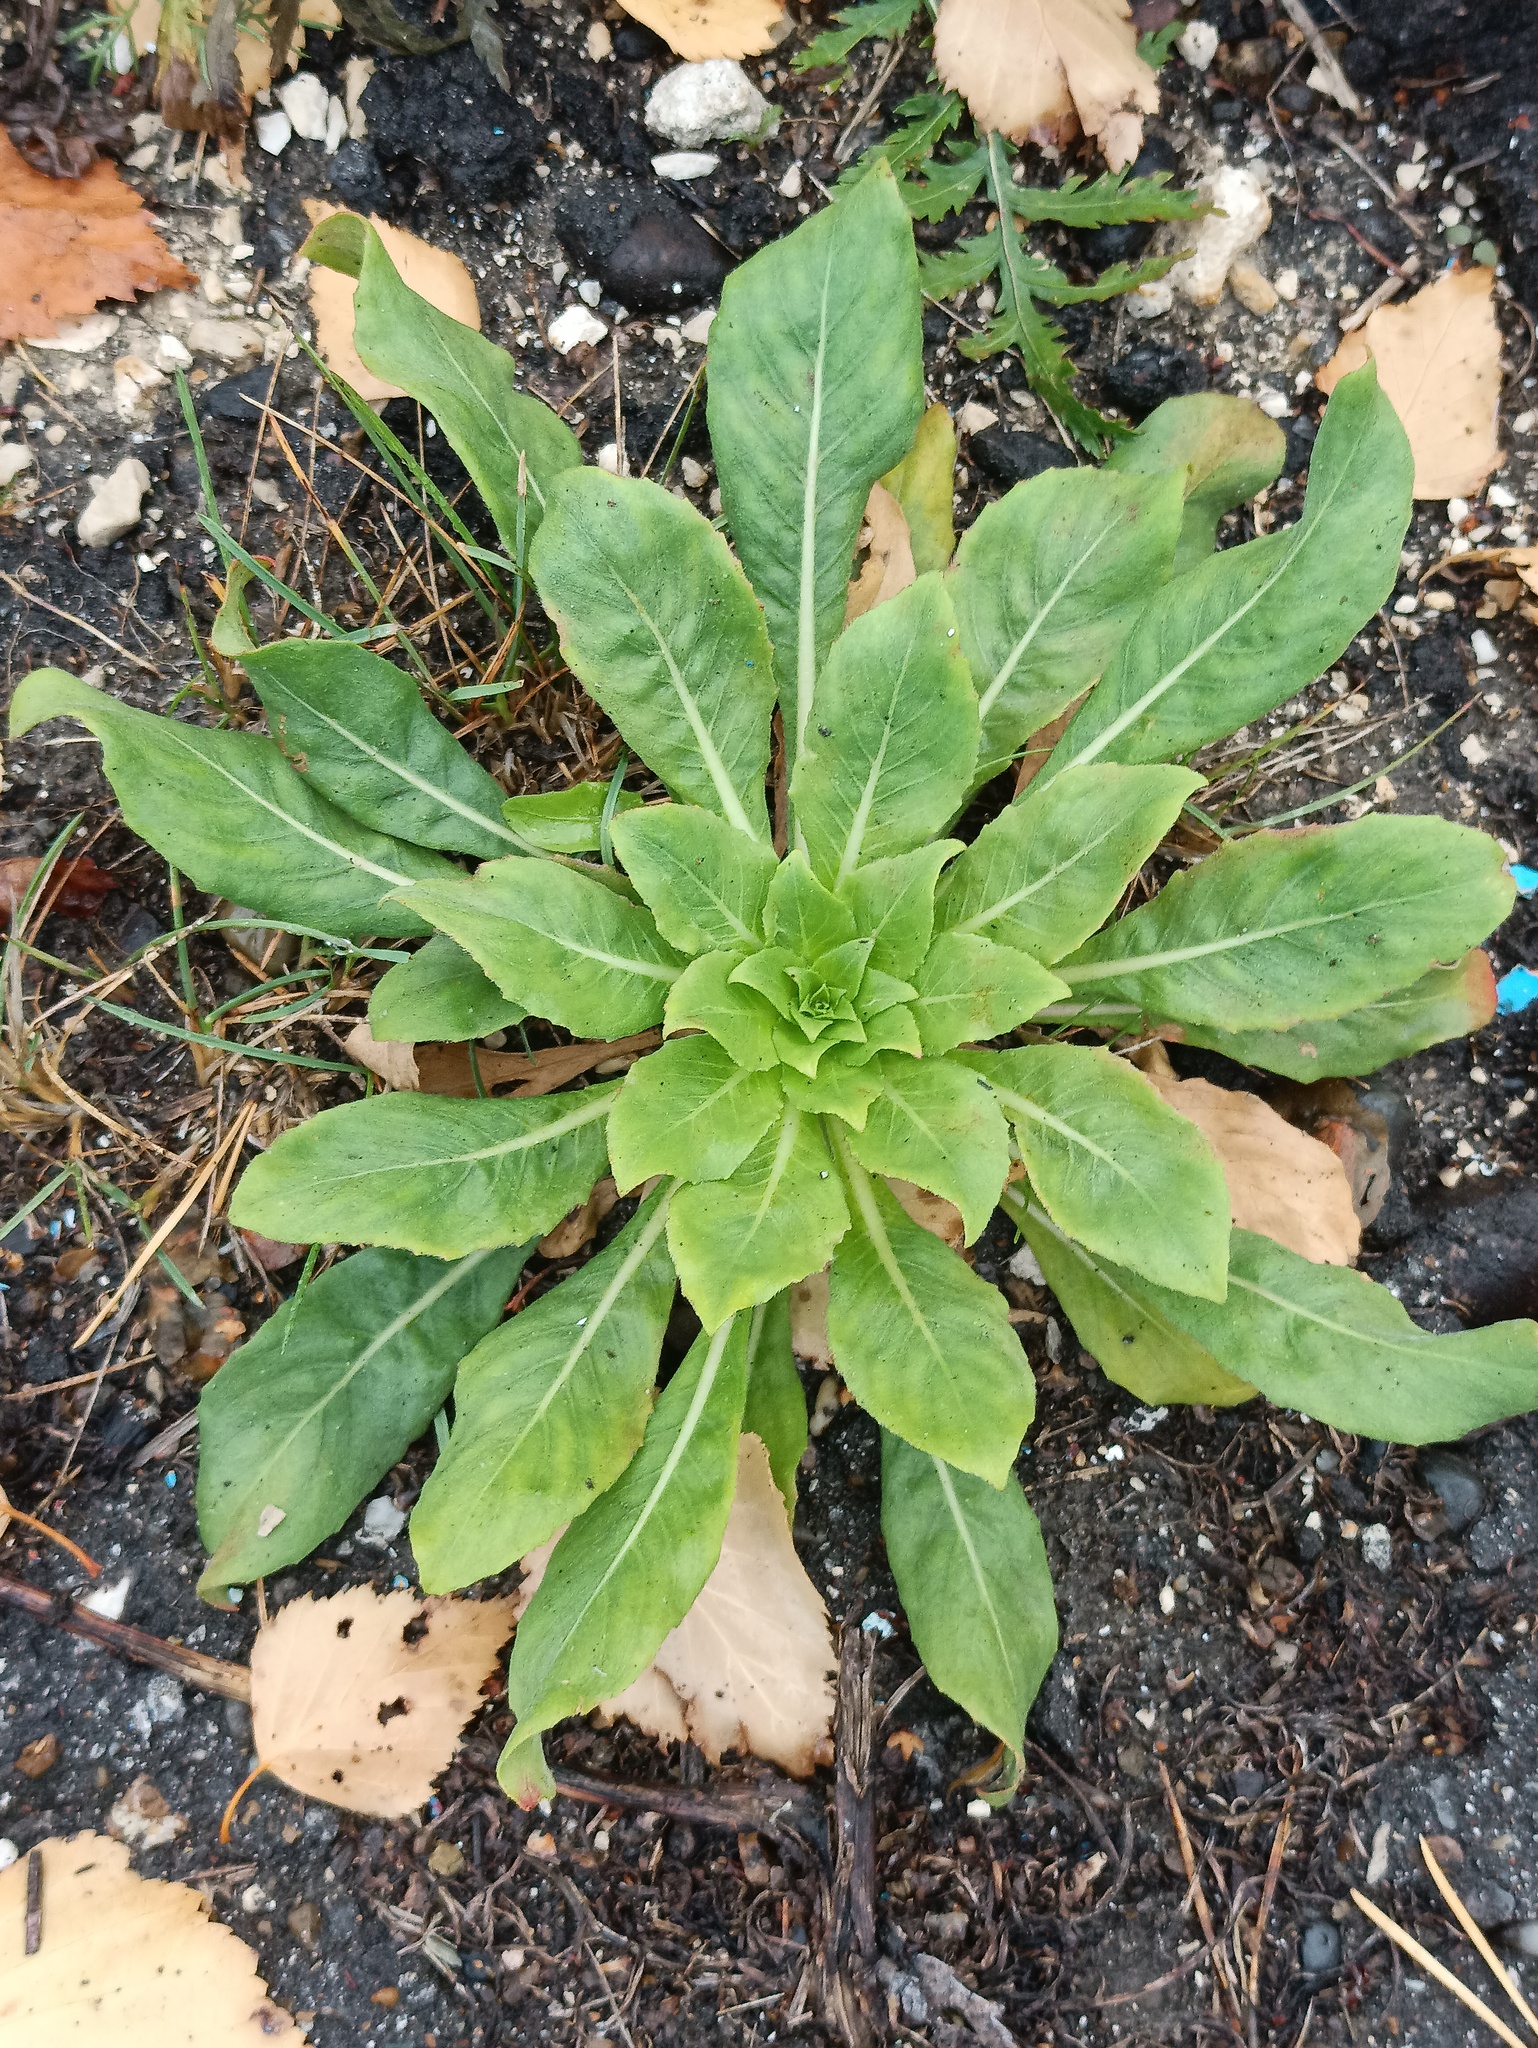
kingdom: Plantae
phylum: Tracheophyta
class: Magnoliopsida
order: Myrtales
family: Onagraceae
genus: Oenothera
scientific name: Oenothera
